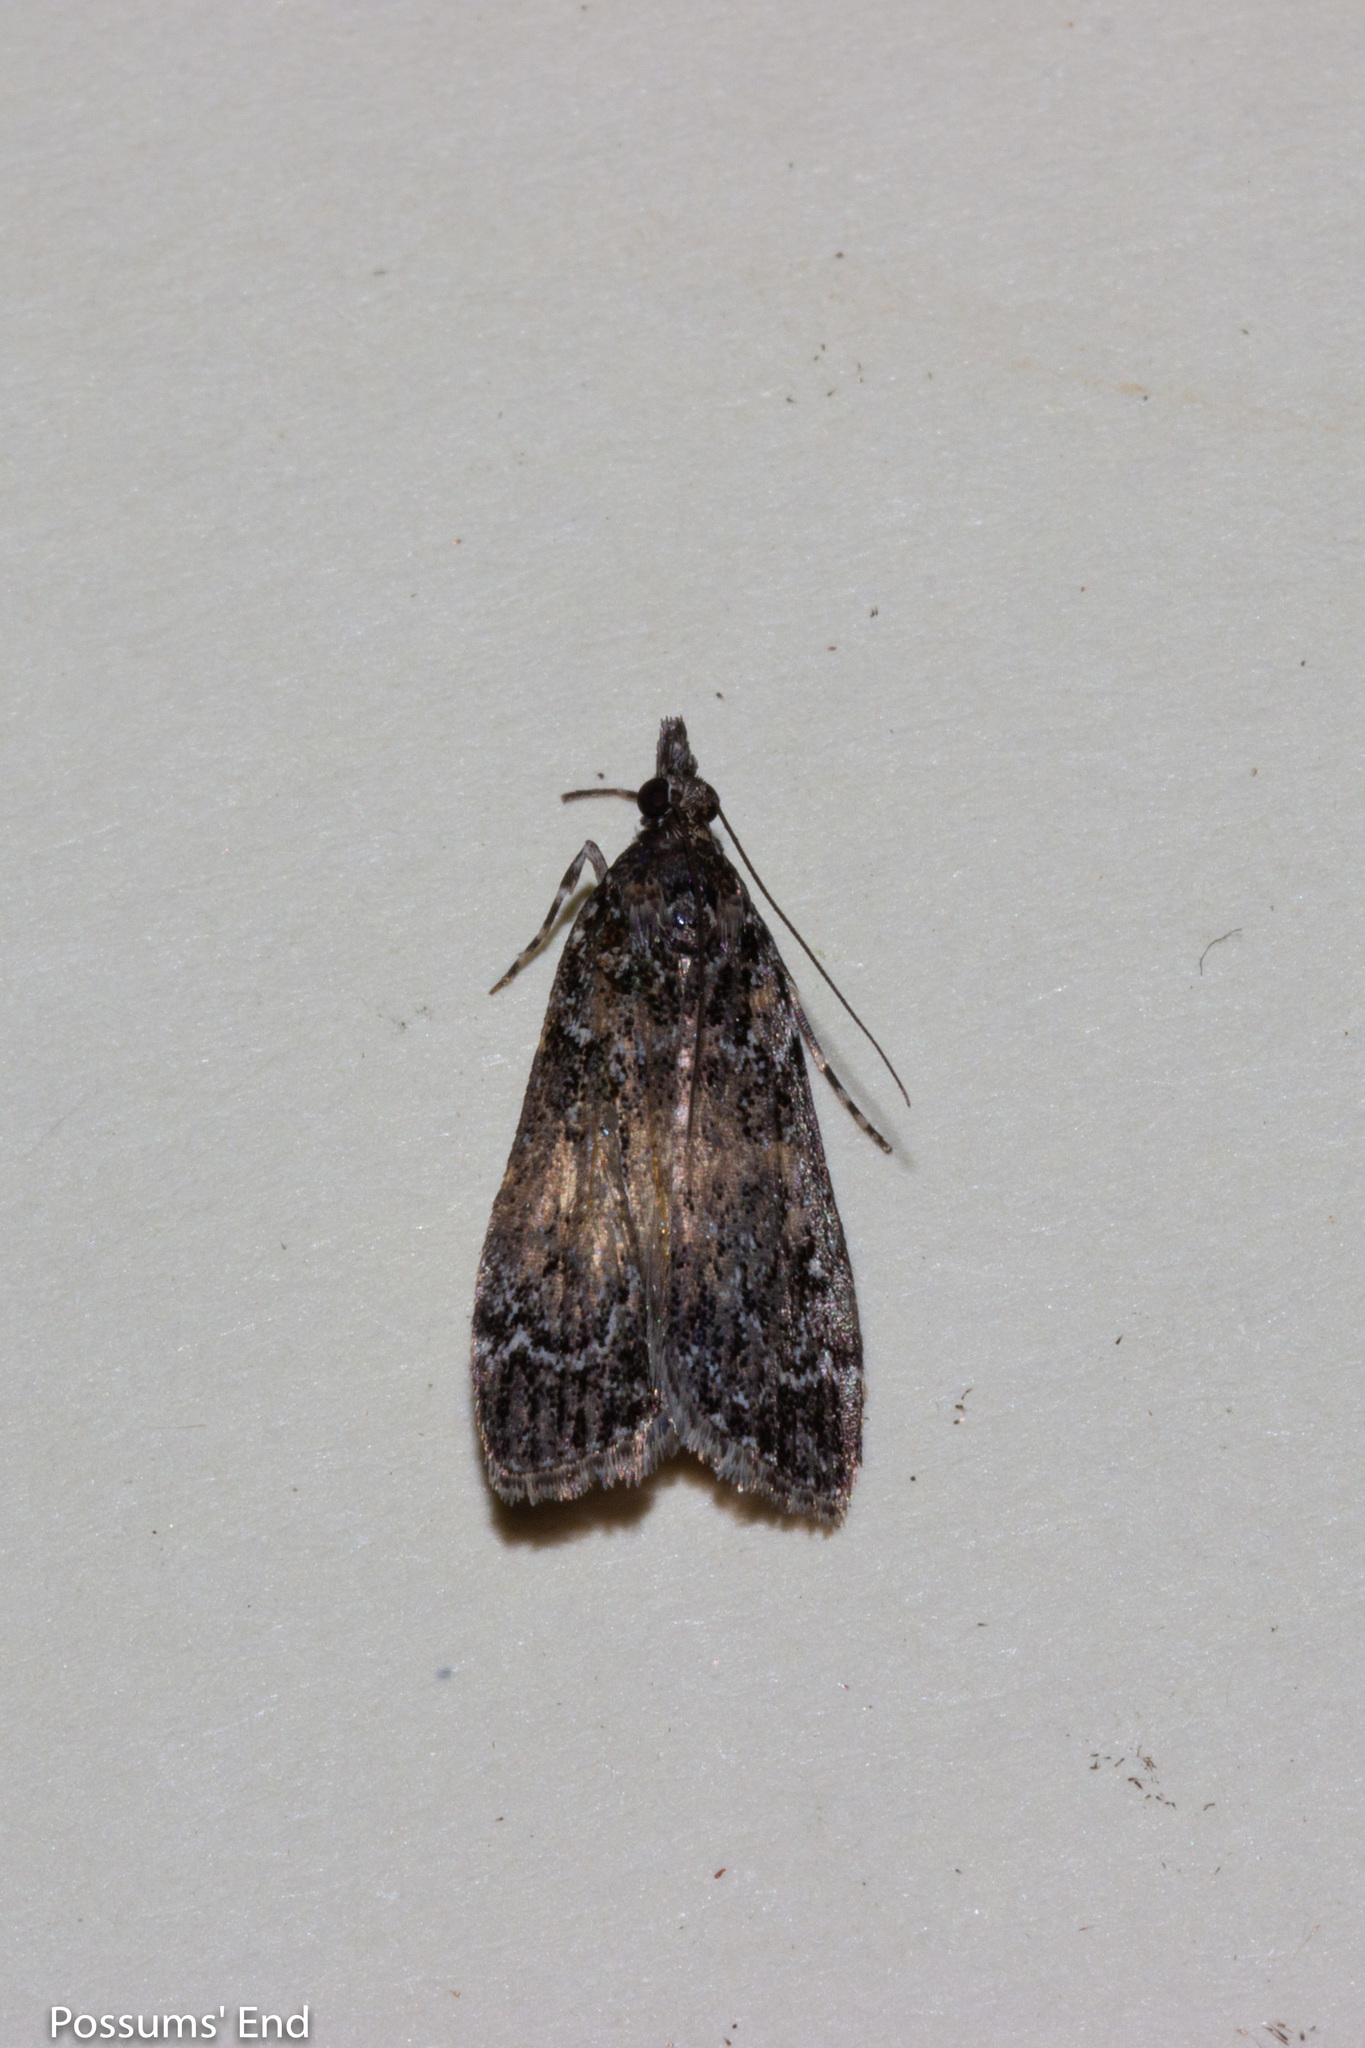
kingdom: Animalia
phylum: Arthropoda
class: Insecta
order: Lepidoptera
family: Crambidae
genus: Eudonia
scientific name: Eudonia philerga
